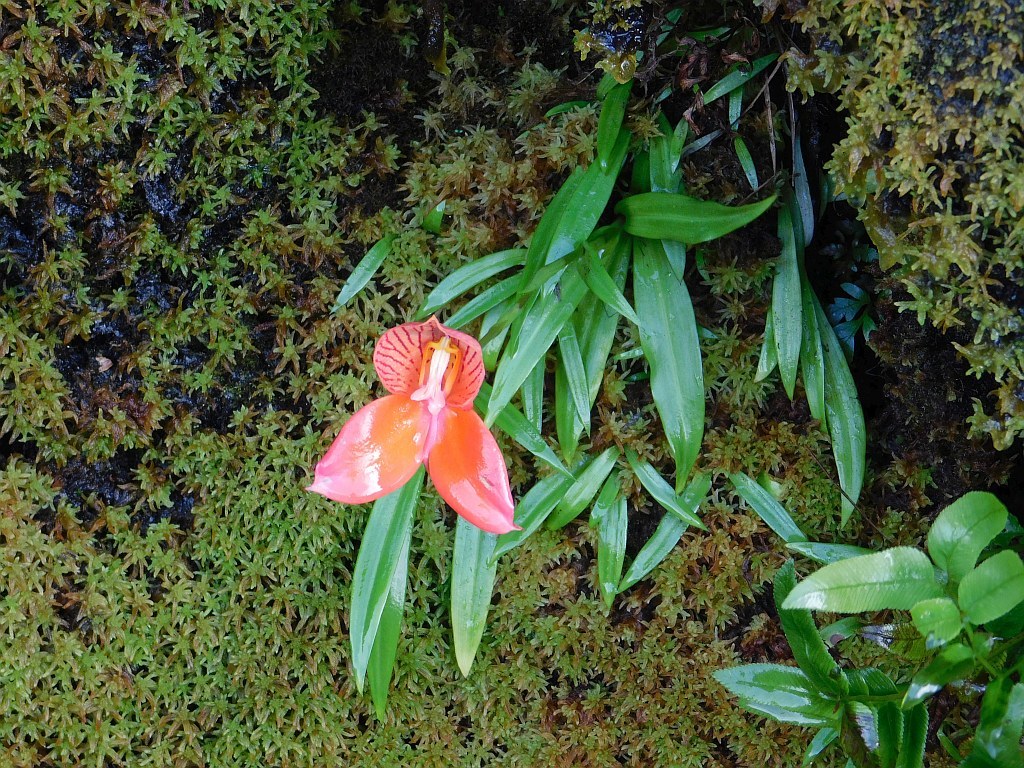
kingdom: Plantae
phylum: Tracheophyta
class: Liliopsida
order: Asparagales
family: Orchidaceae
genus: Disa
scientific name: Disa uniflora
